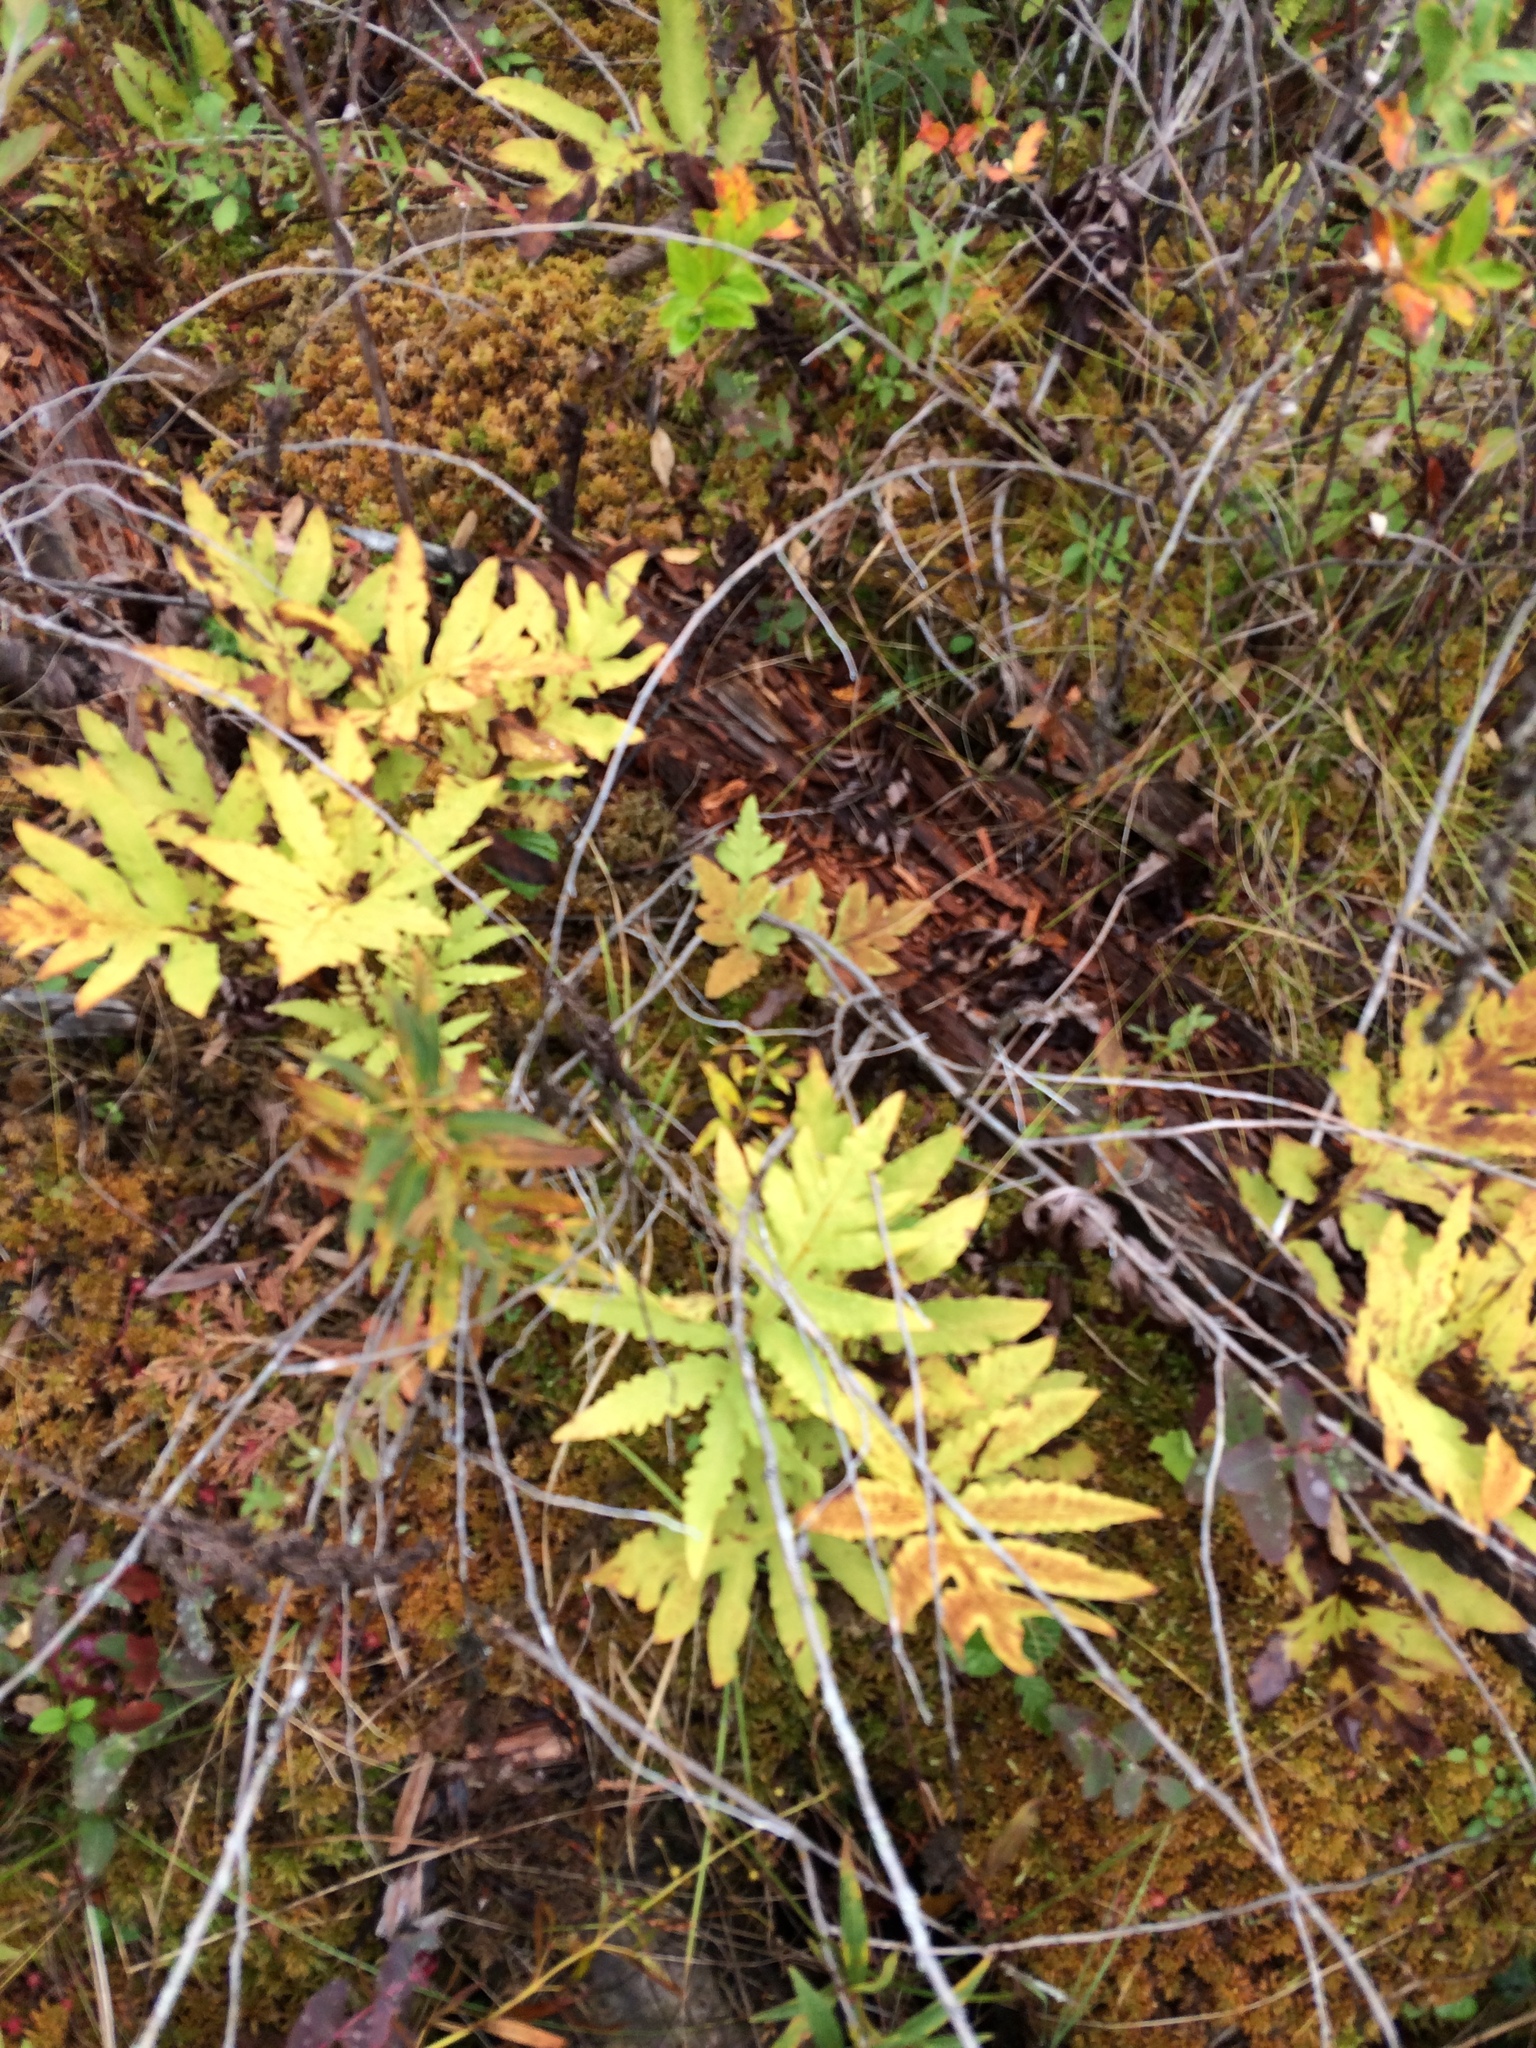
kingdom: Plantae
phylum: Tracheophyta
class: Polypodiopsida
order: Polypodiales
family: Onocleaceae
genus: Onoclea
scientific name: Onoclea sensibilis
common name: Sensitive fern
